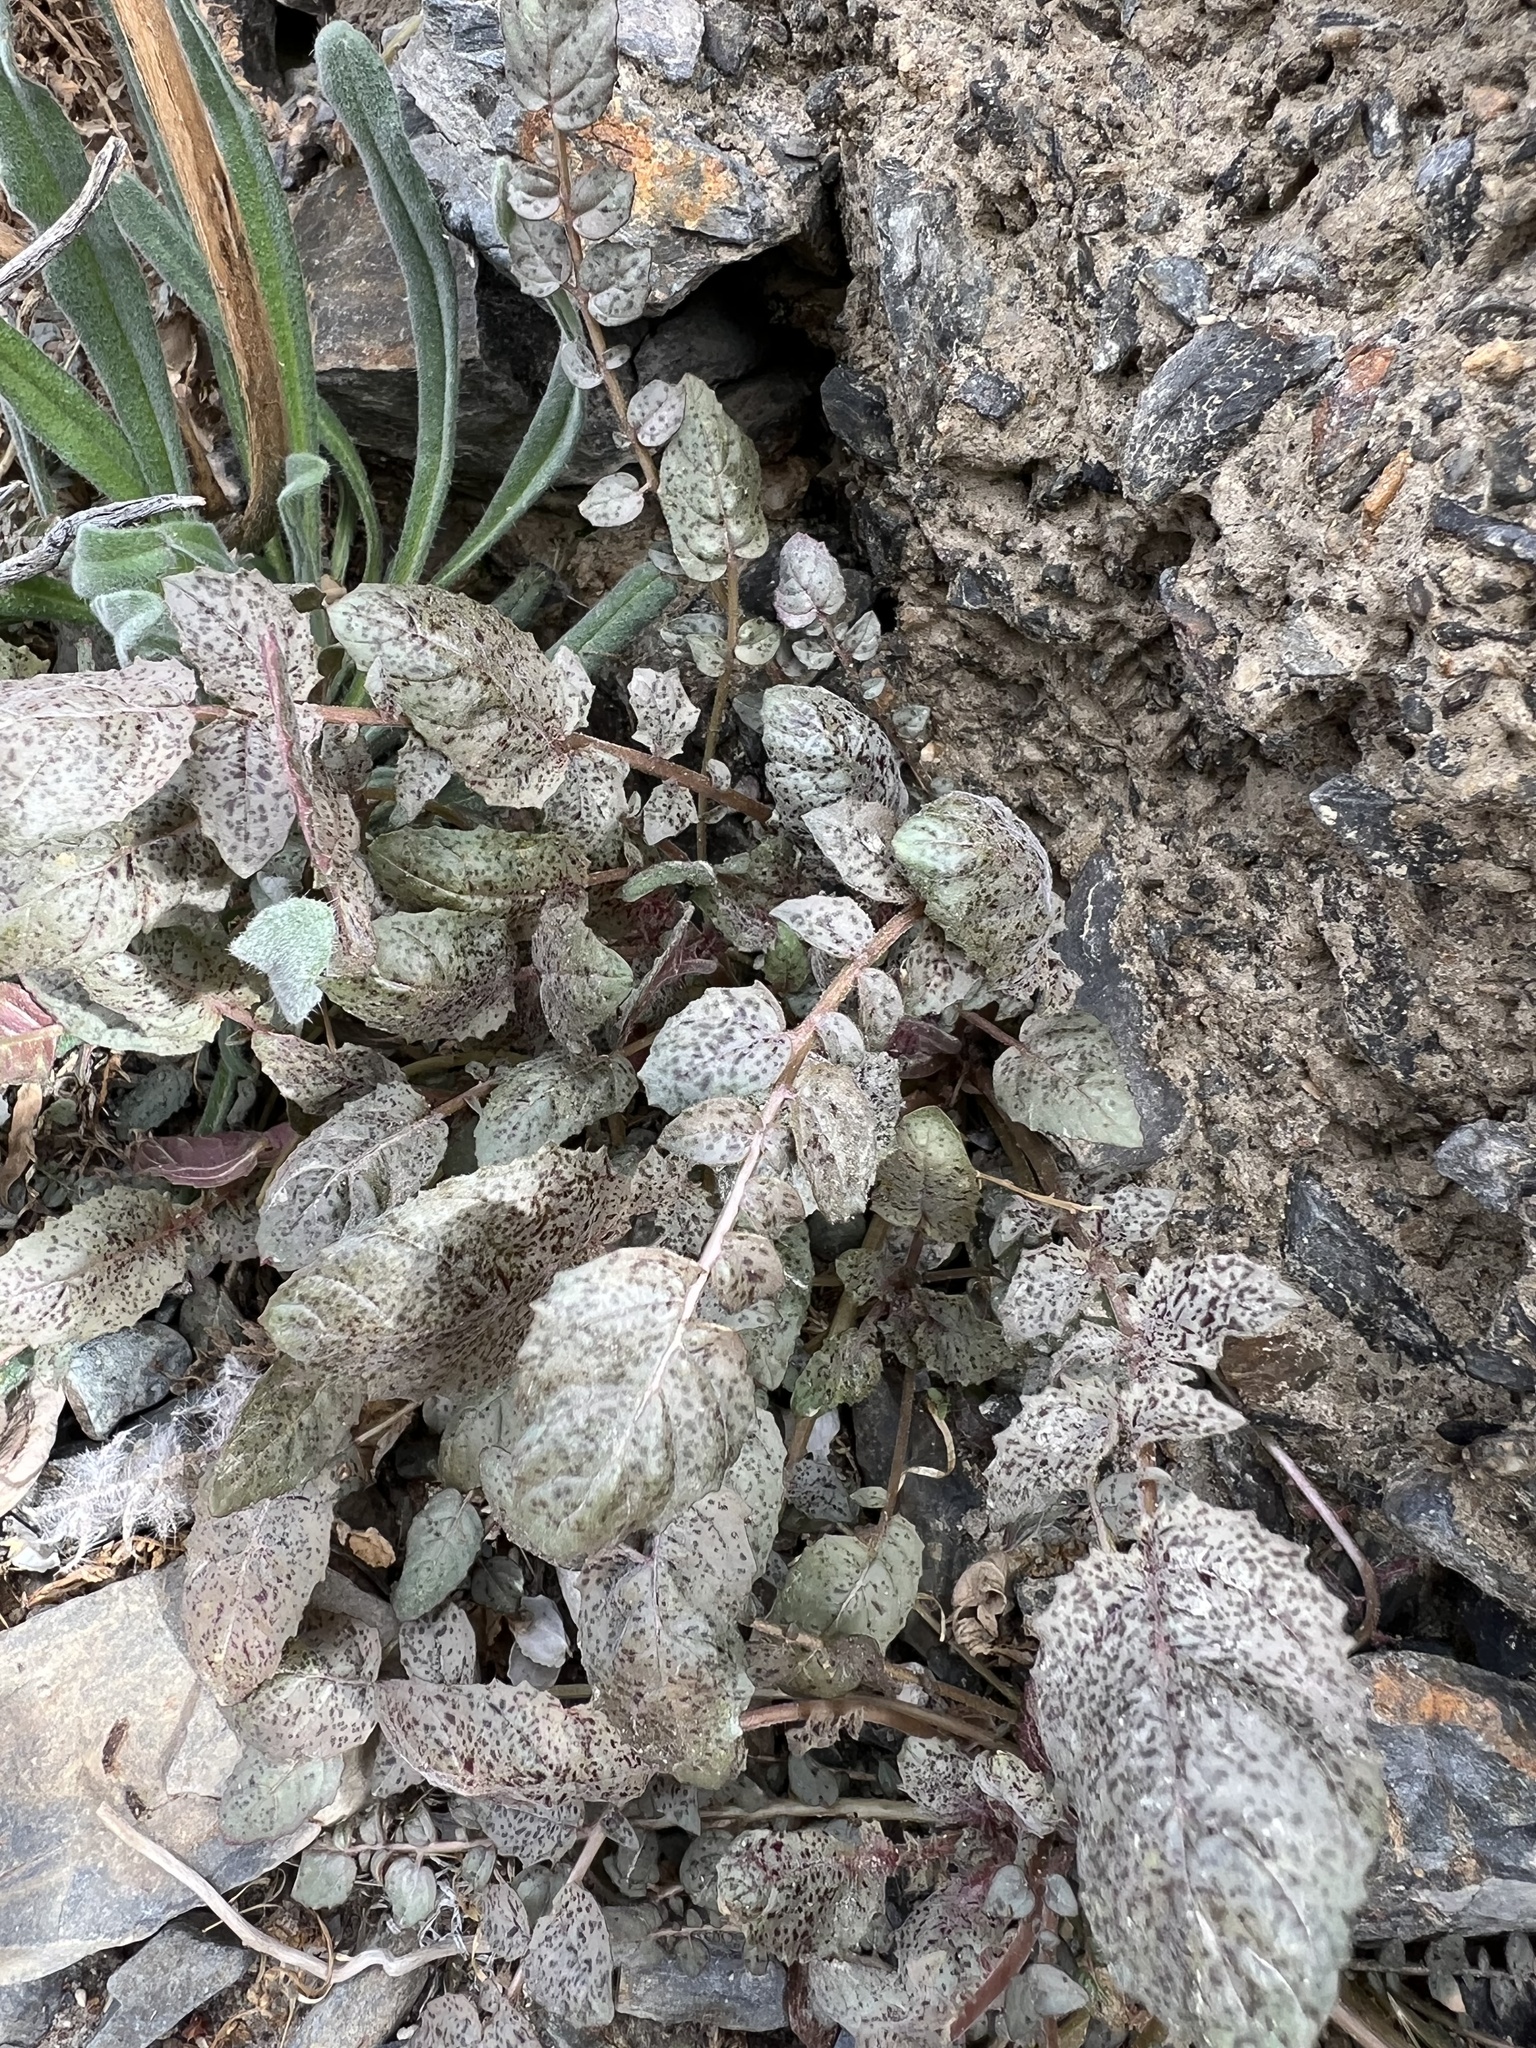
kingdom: Plantae
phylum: Tracheophyta
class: Magnoliopsida
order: Myrtales
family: Onagraceae
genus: Chylismia
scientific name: Chylismia walkeri
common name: Walker's suncup
